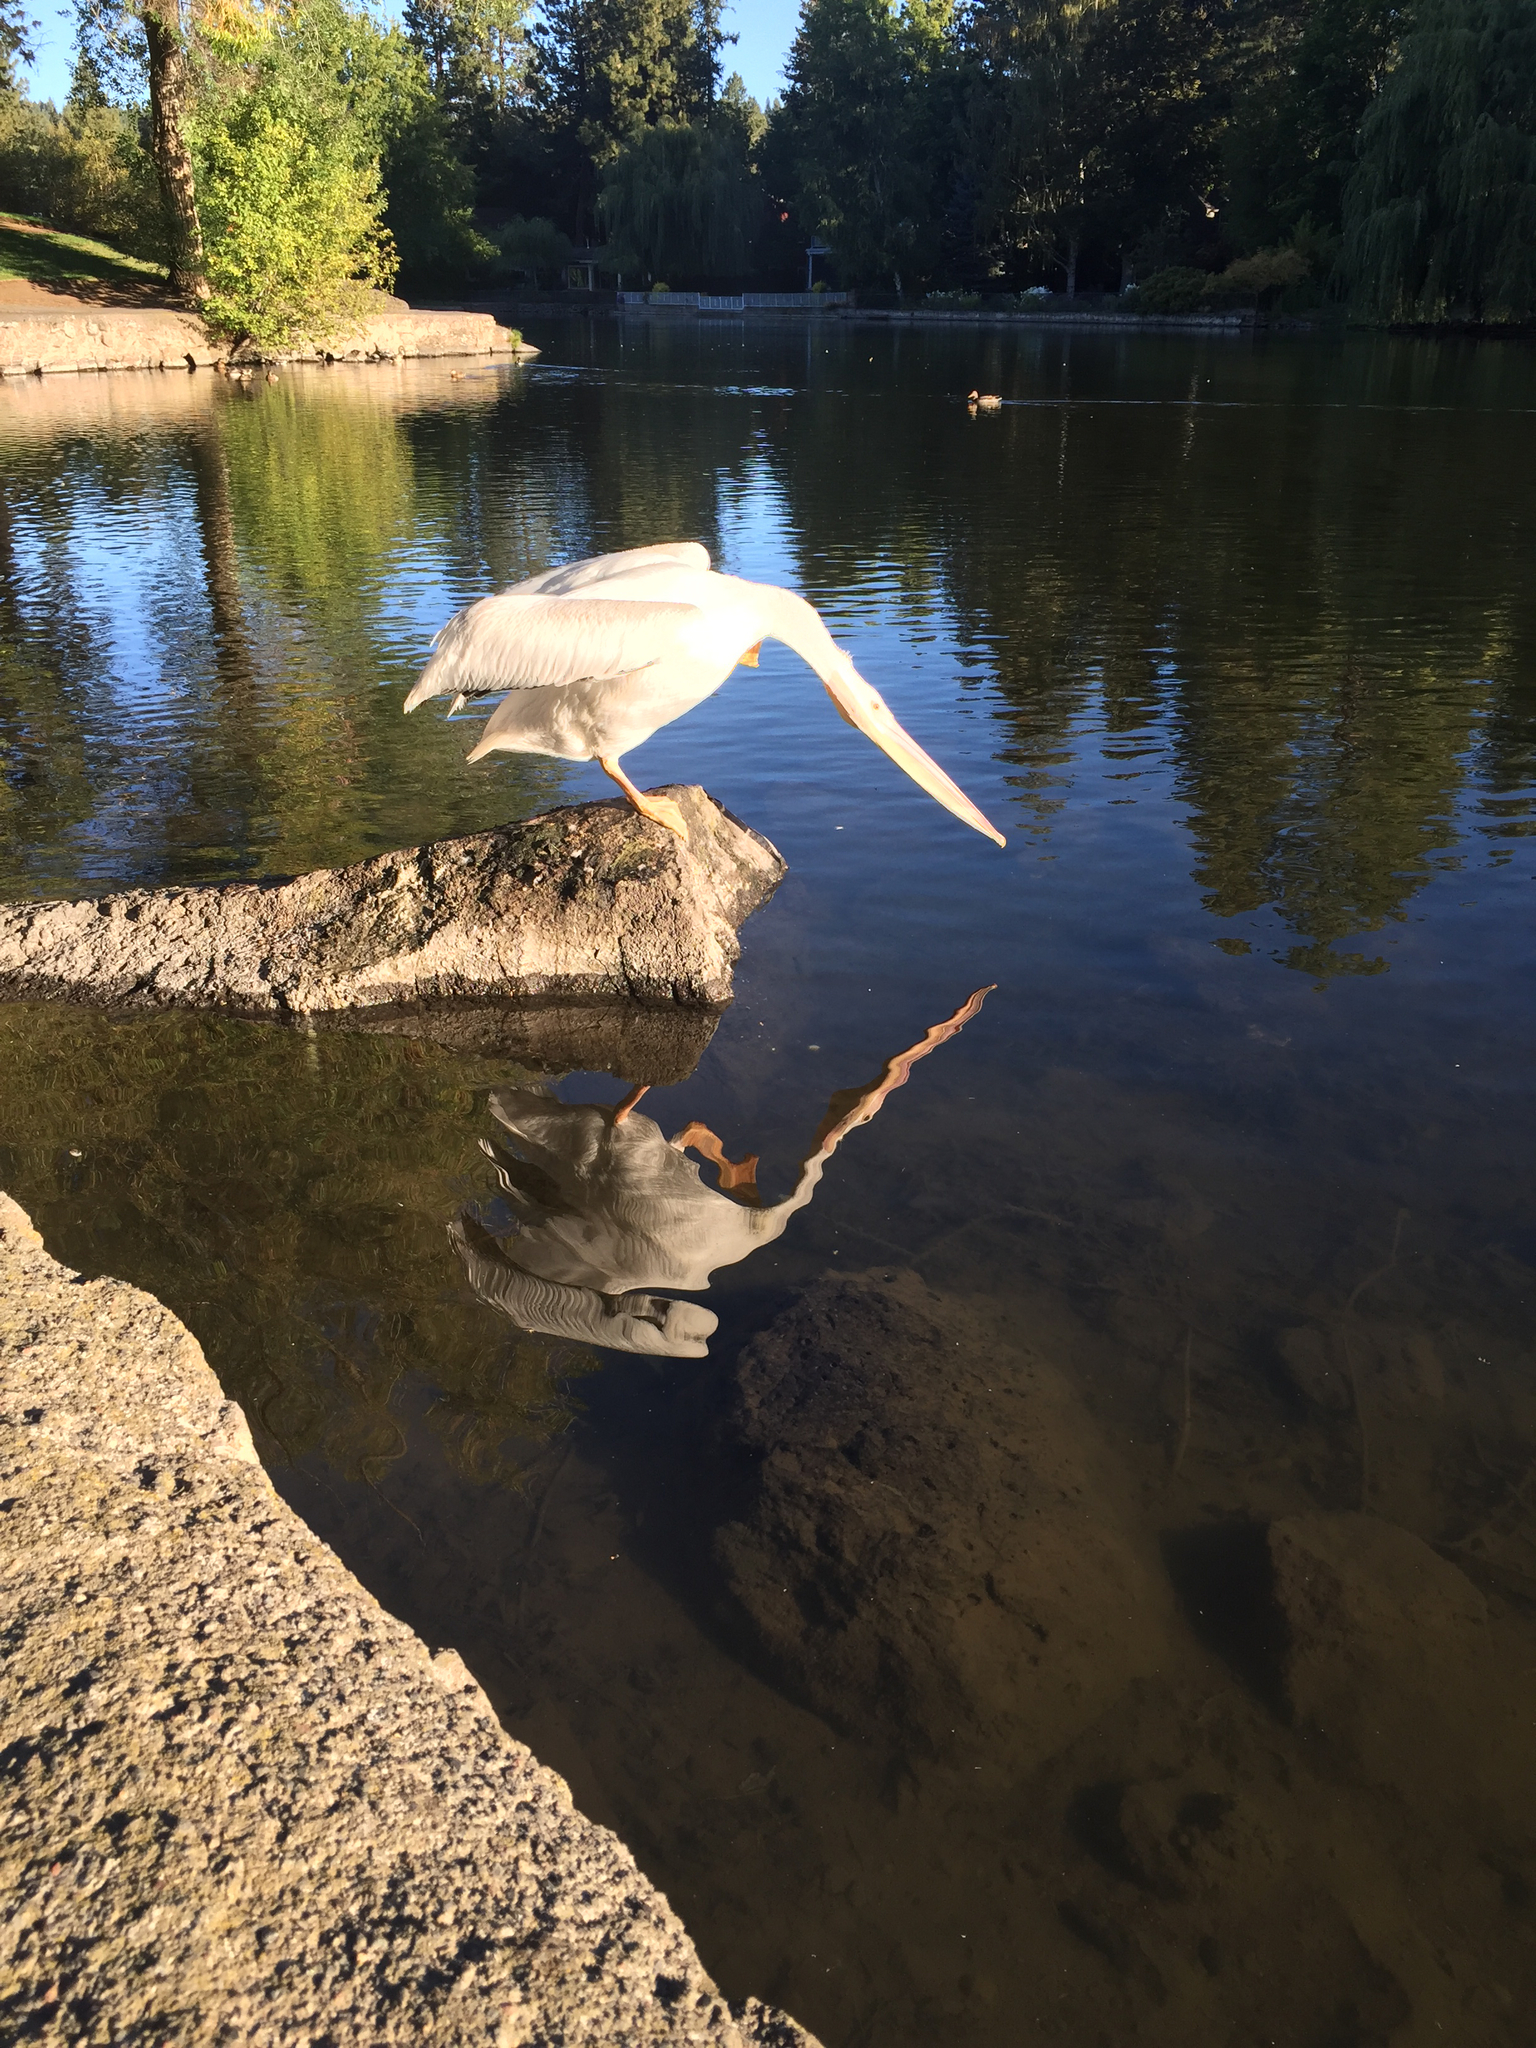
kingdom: Animalia
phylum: Chordata
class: Aves
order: Pelecaniformes
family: Pelecanidae
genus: Pelecanus
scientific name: Pelecanus erythrorhynchos
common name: American white pelican
